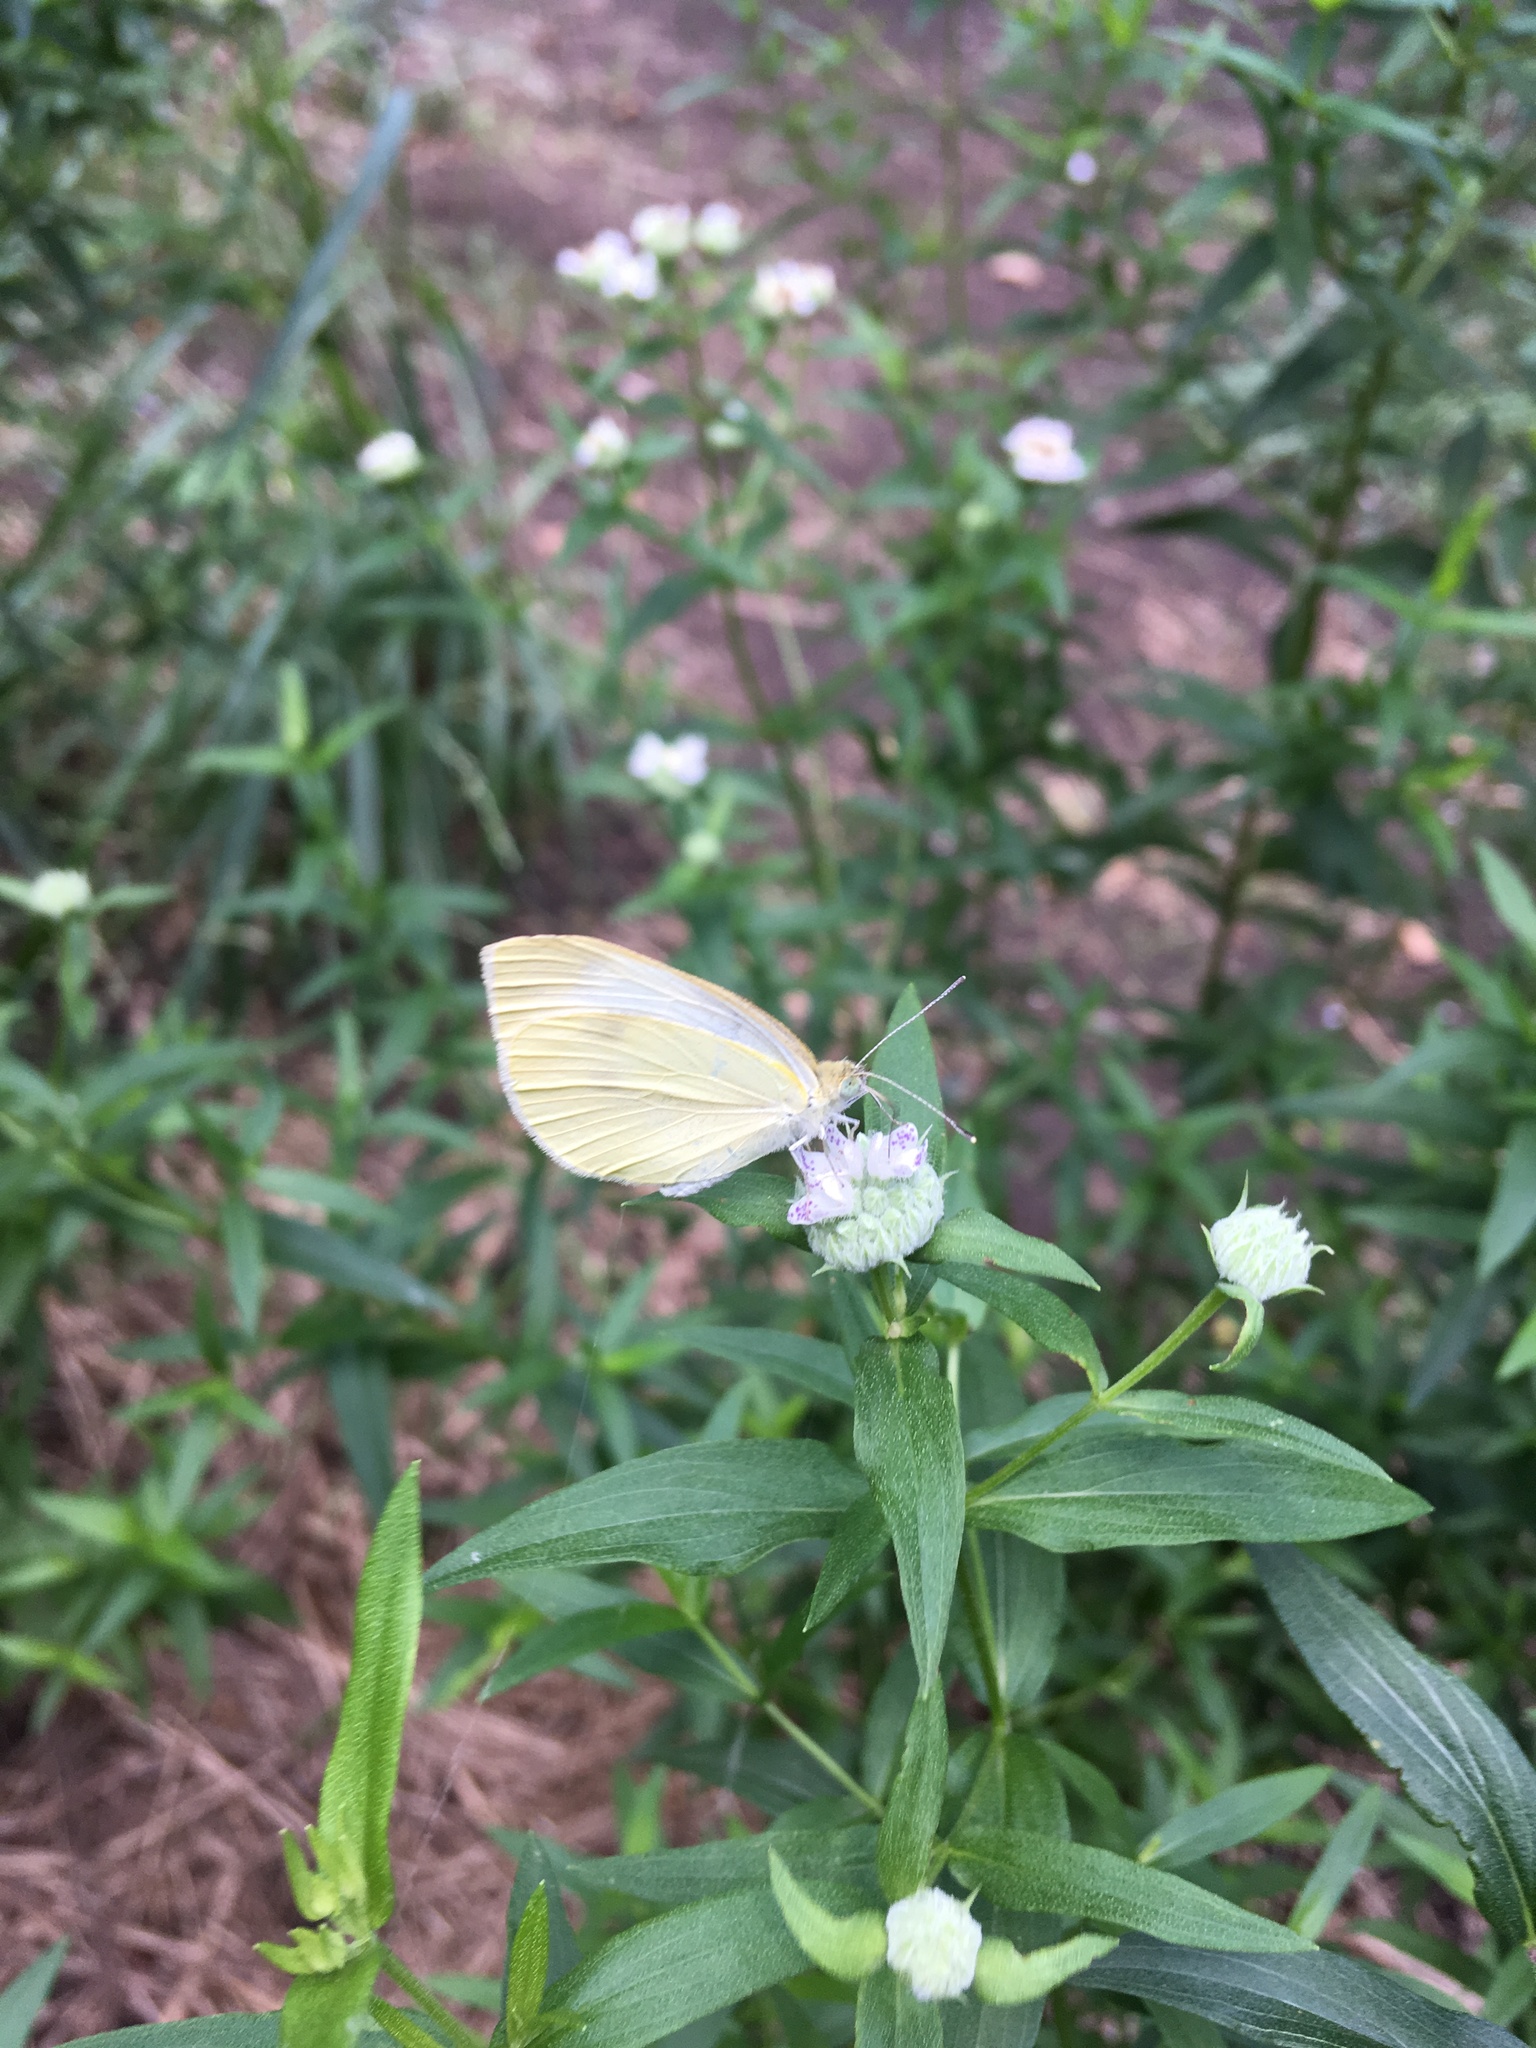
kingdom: Animalia
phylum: Arthropoda
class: Insecta
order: Lepidoptera
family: Pieridae
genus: Pieris
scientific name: Pieris rapae
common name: Small white
